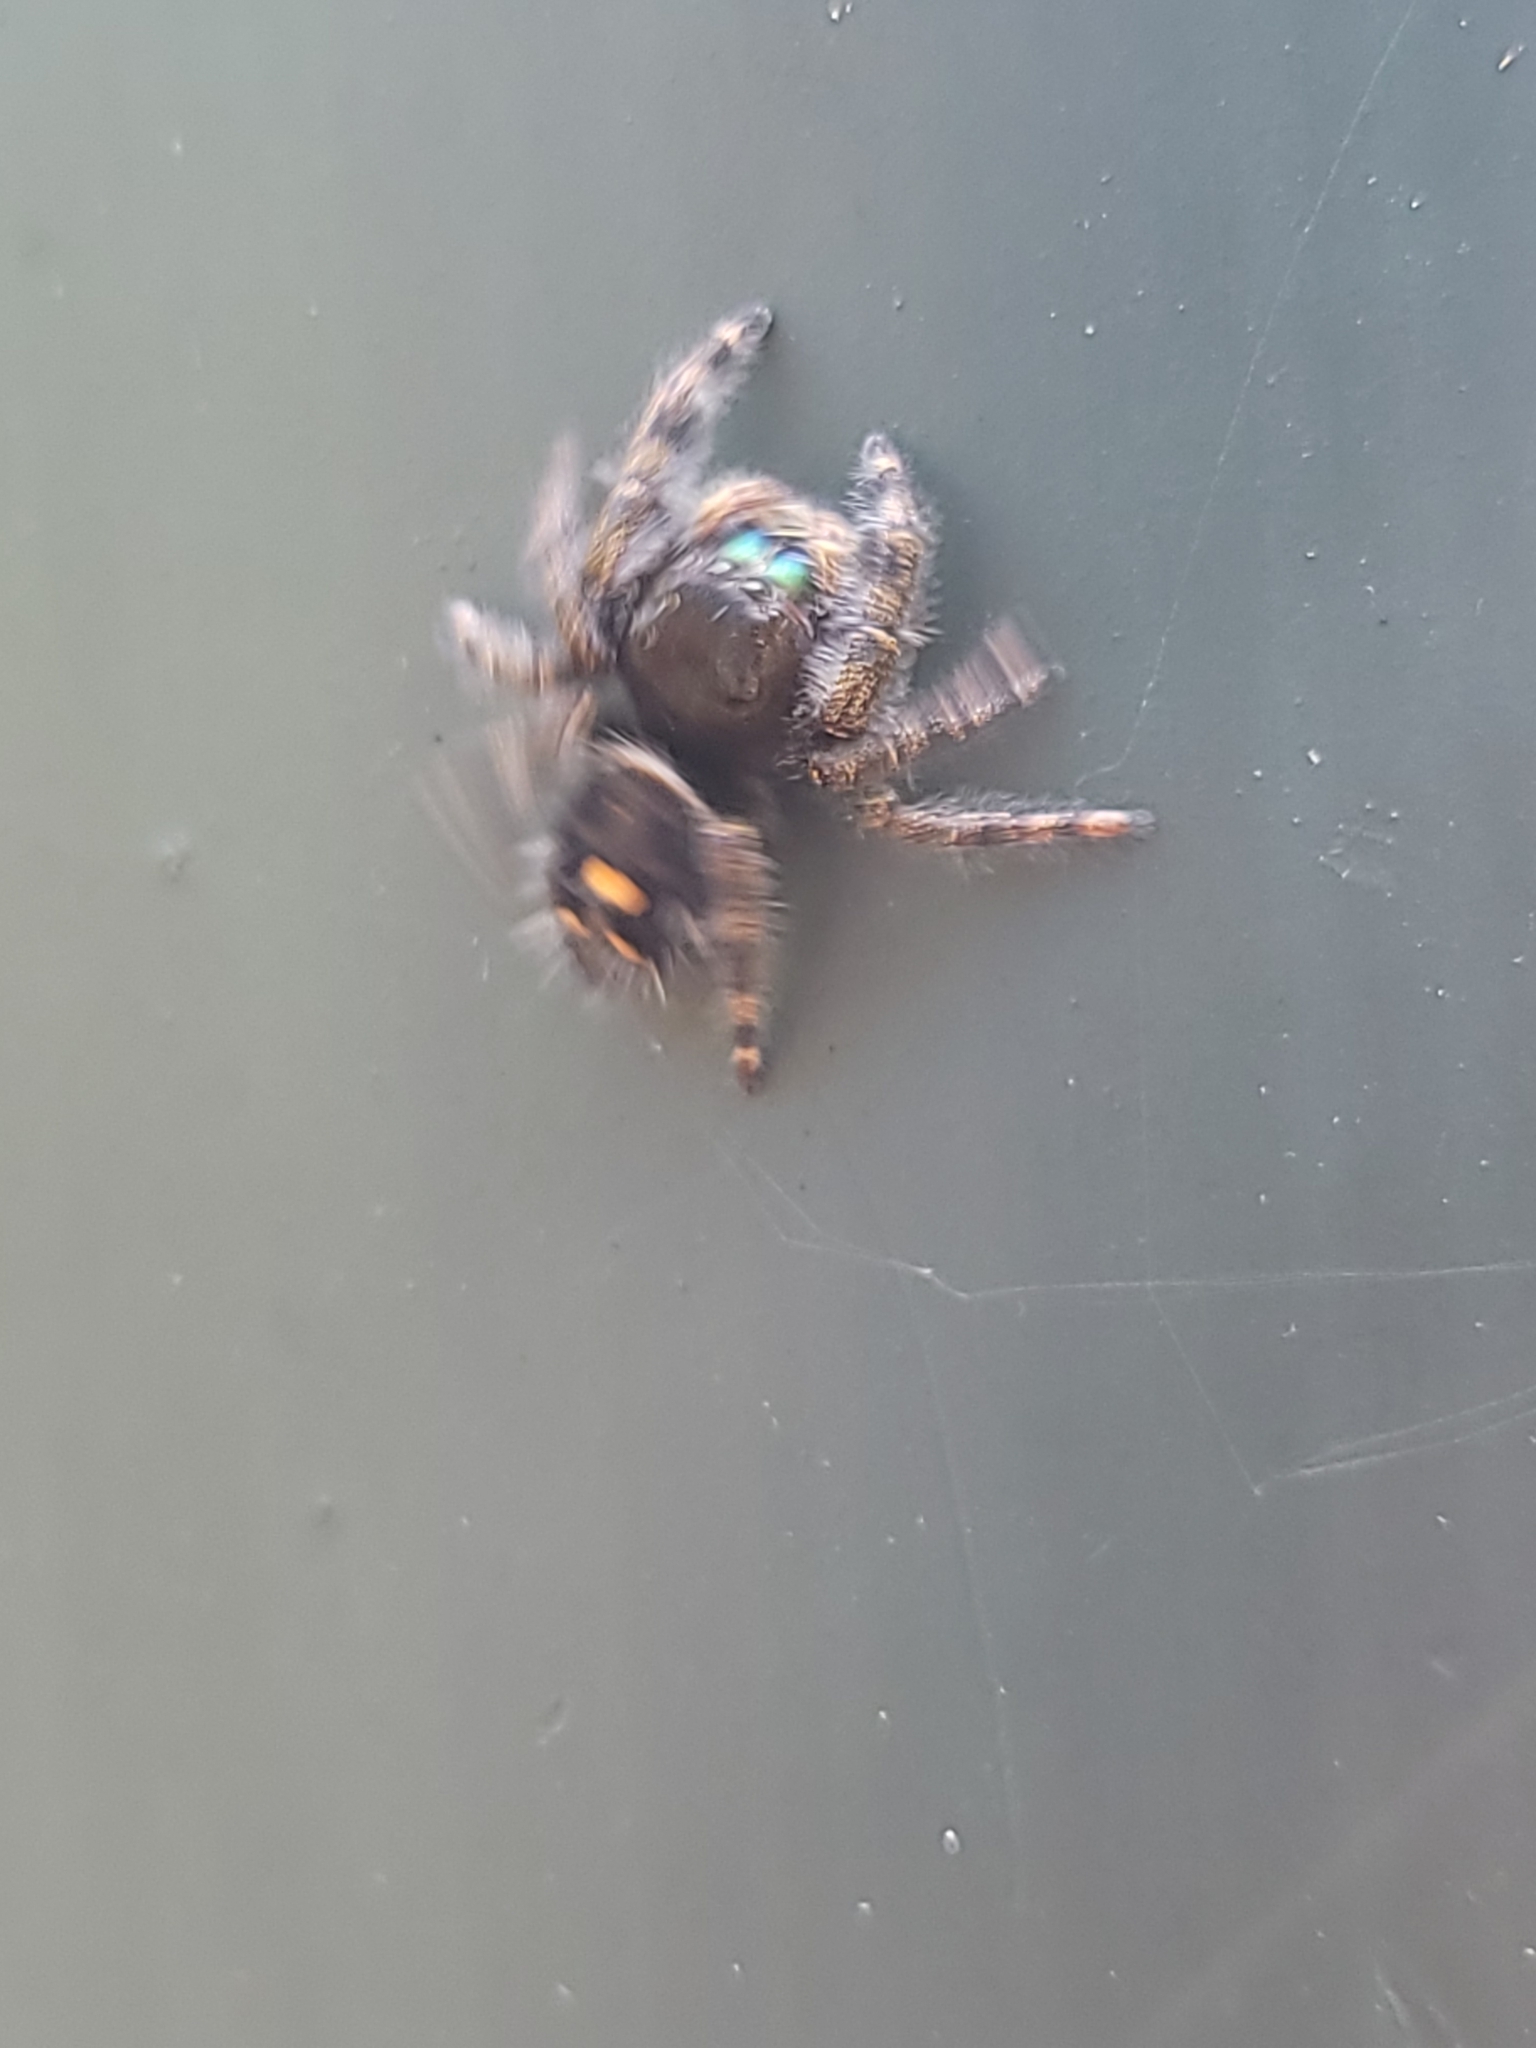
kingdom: Animalia
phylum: Arthropoda
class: Arachnida
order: Araneae
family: Salticidae
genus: Phidippus
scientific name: Phidippus audax
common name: Bold jumper
